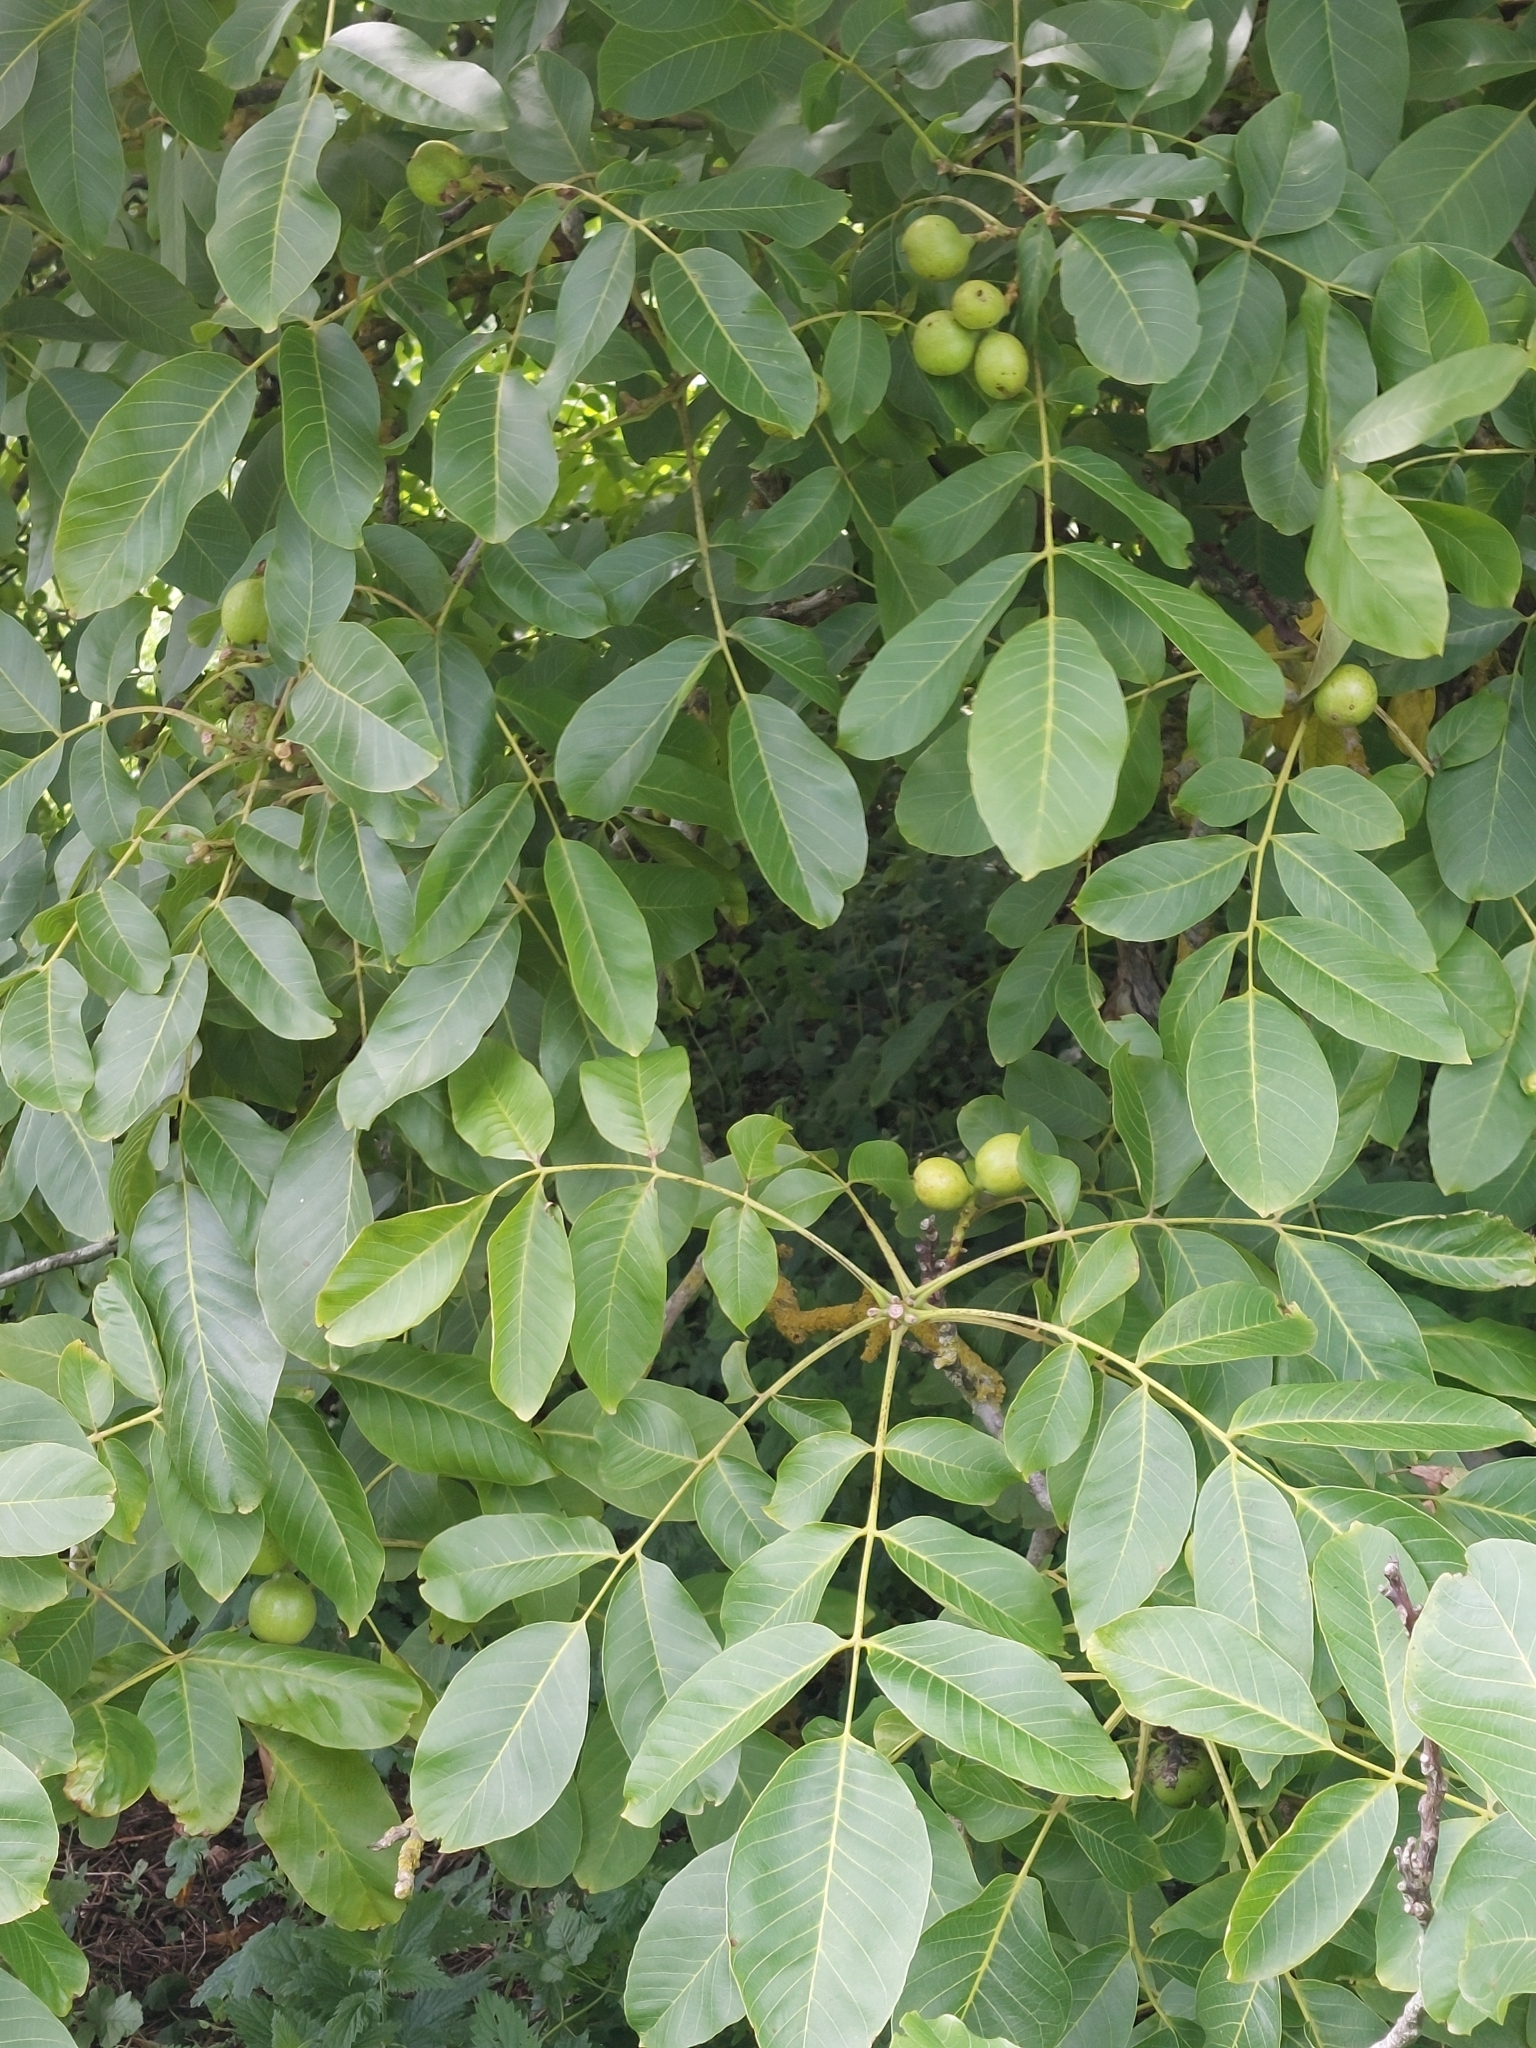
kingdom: Plantae
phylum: Tracheophyta
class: Magnoliopsida
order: Fagales
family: Juglandaceae
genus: Juglans
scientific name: Juglans regia
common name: Walnut
